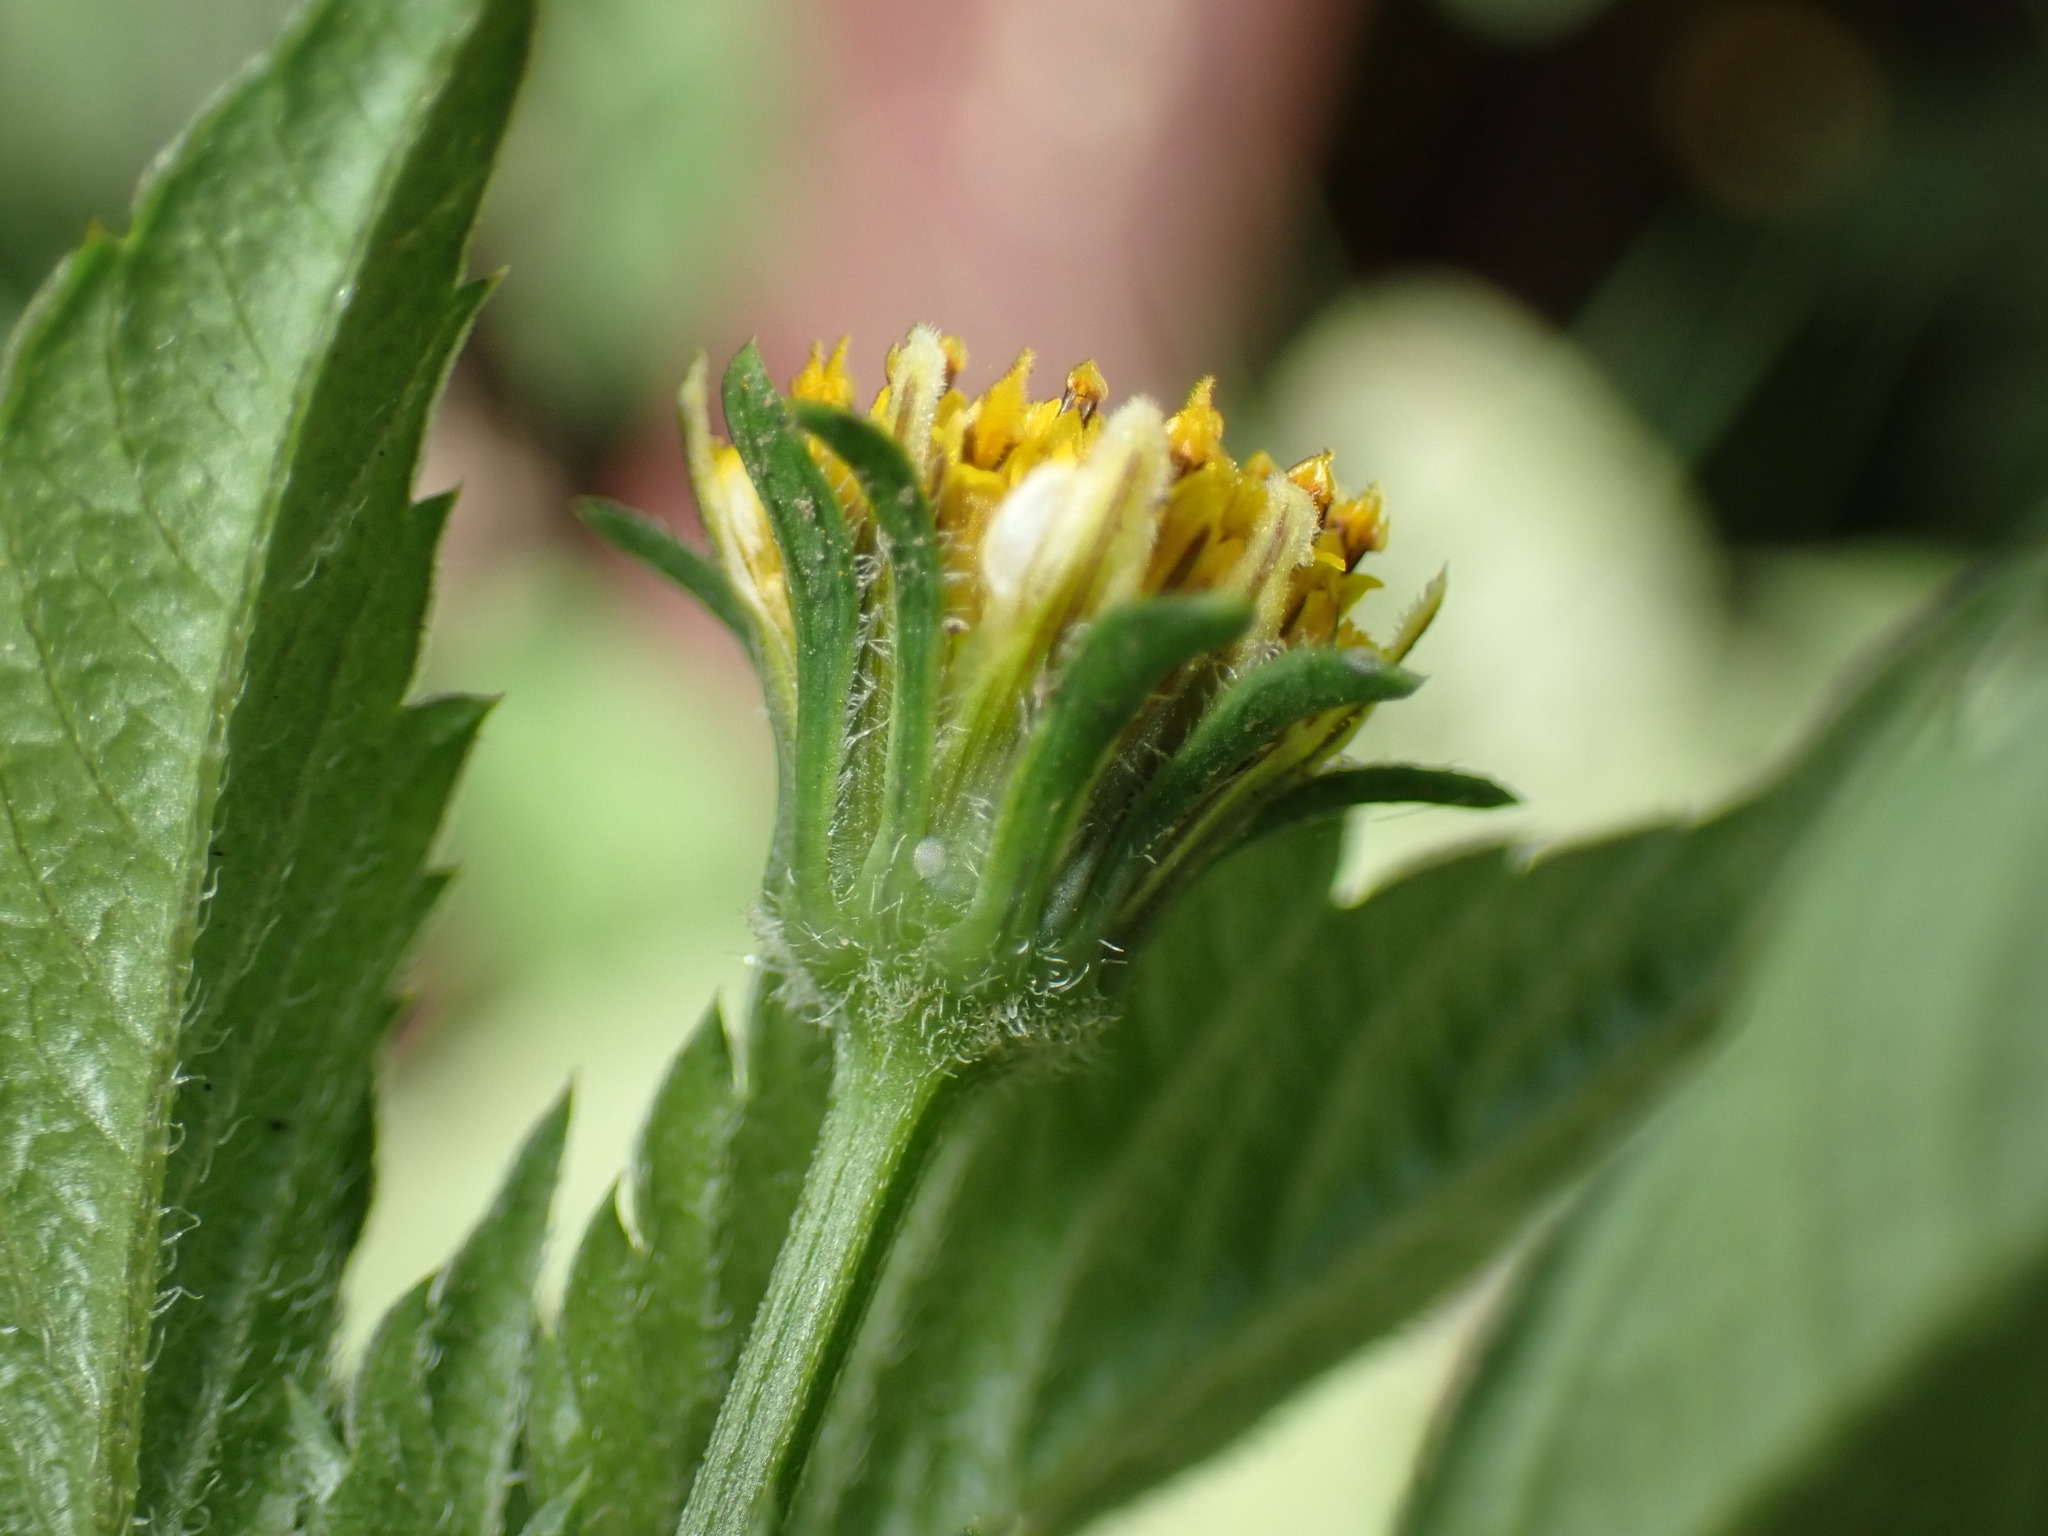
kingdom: Plantae
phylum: Tracheophyta
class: Magnoliopsida
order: Asterales
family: Asteraceae
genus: Bidens
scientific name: Bidens pilosa
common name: Black-jack
